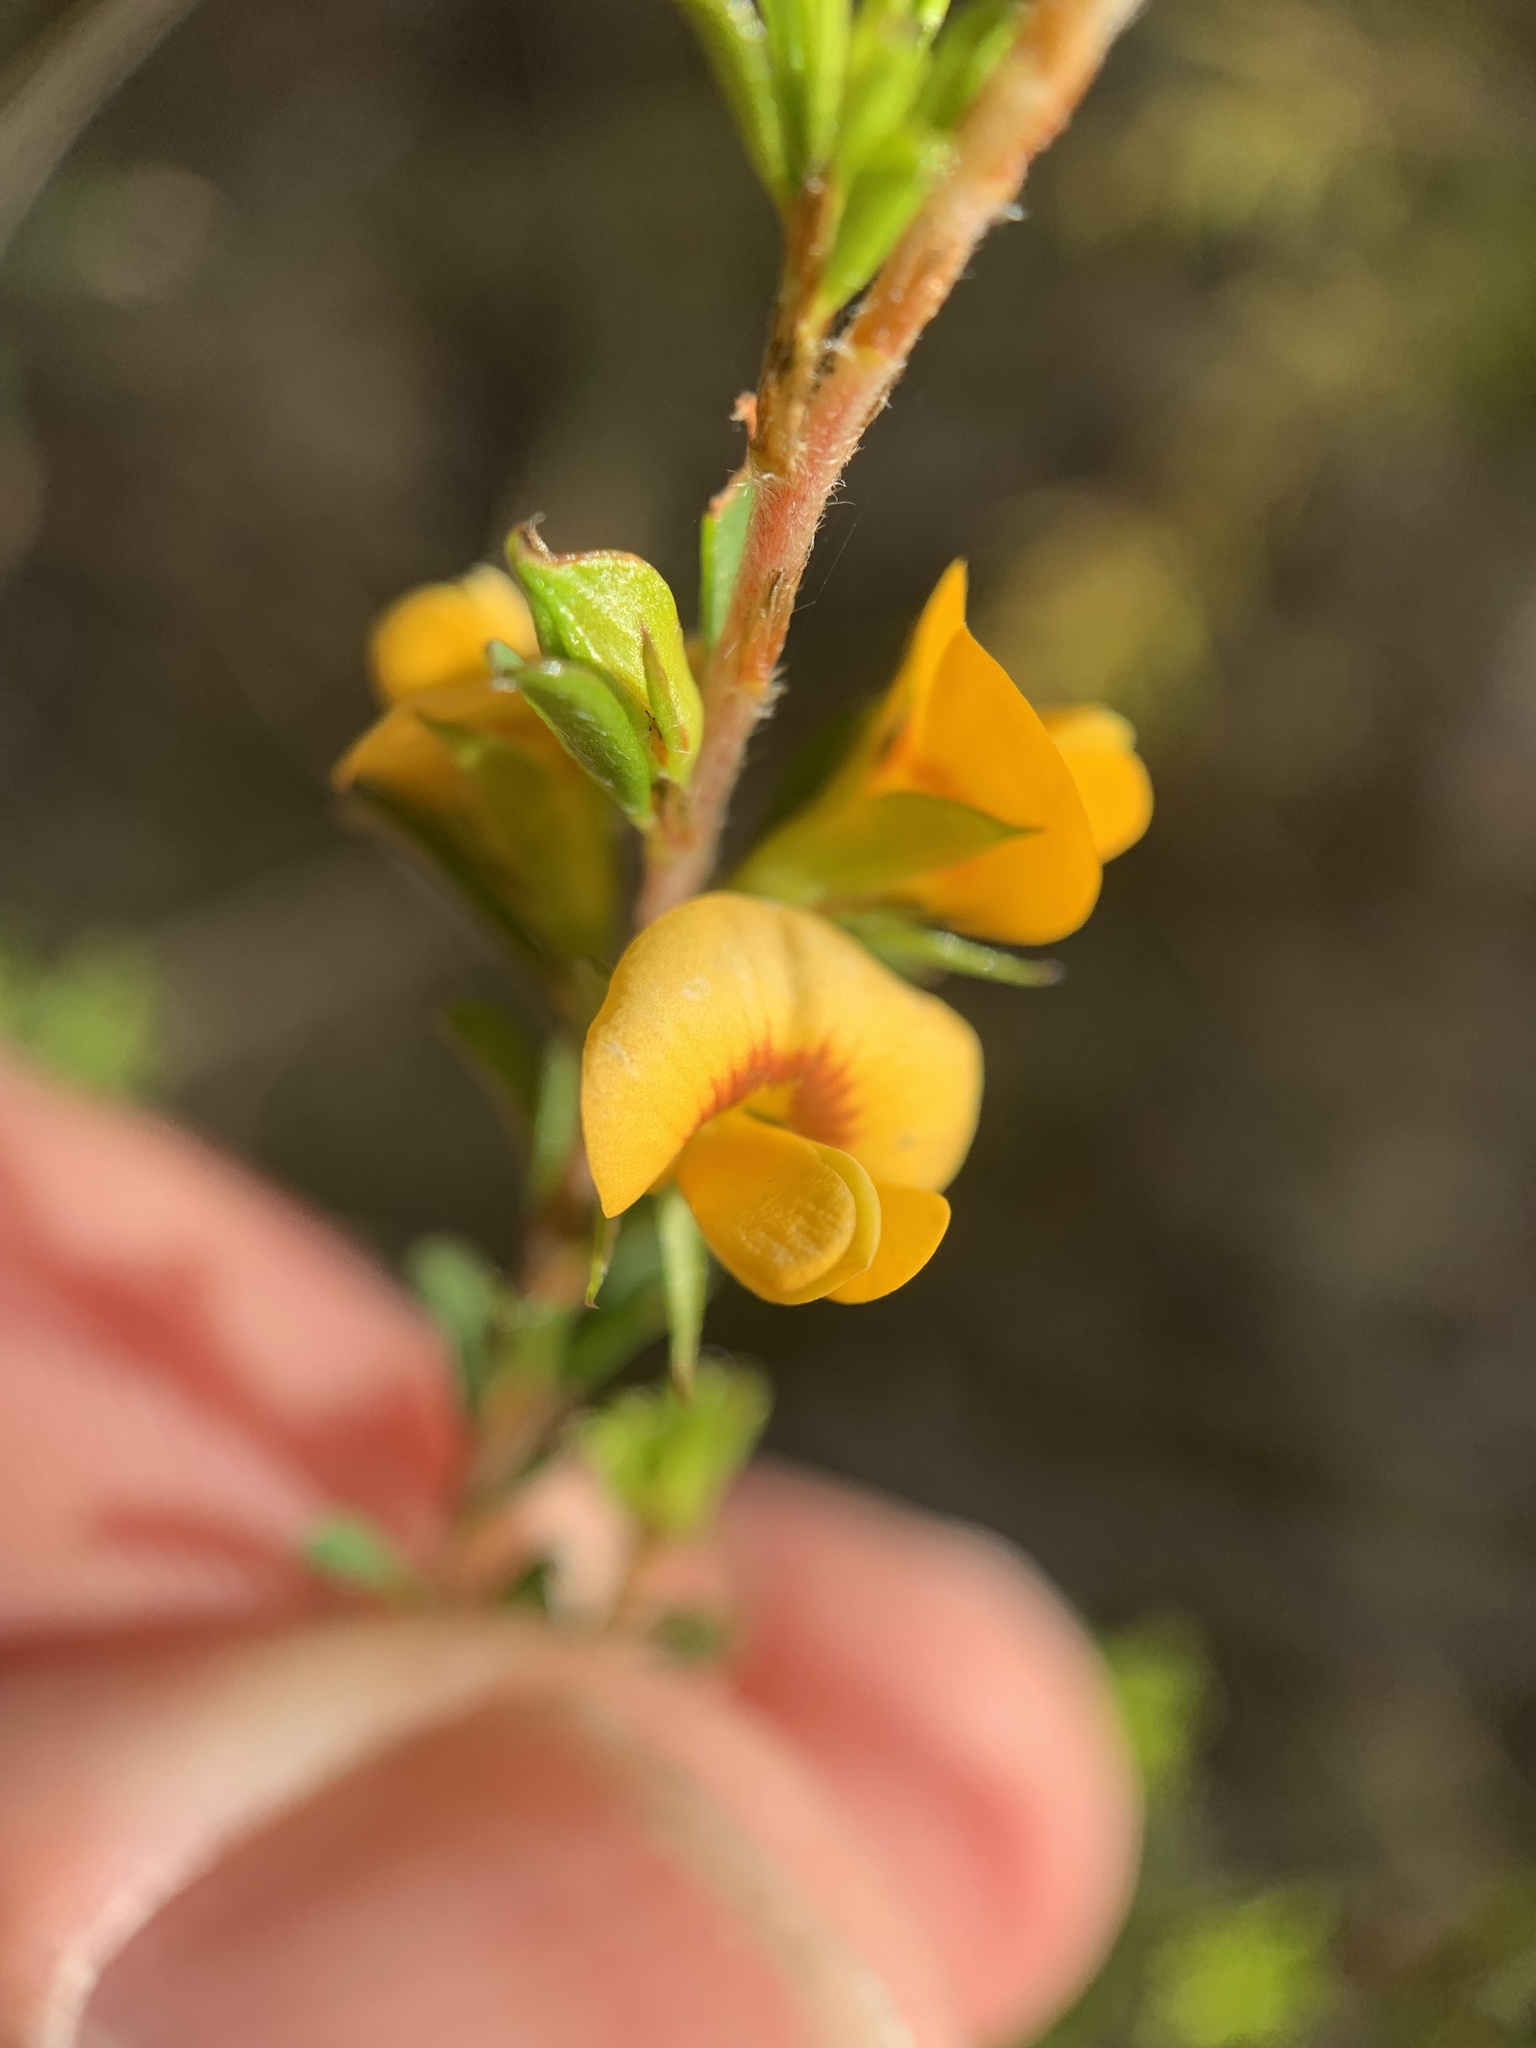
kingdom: Plantae
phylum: Tracheophyta
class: Magnoliopsida
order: Fabales
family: Fabaceae
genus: Pultenaea
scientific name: Pultenaea parviflora
